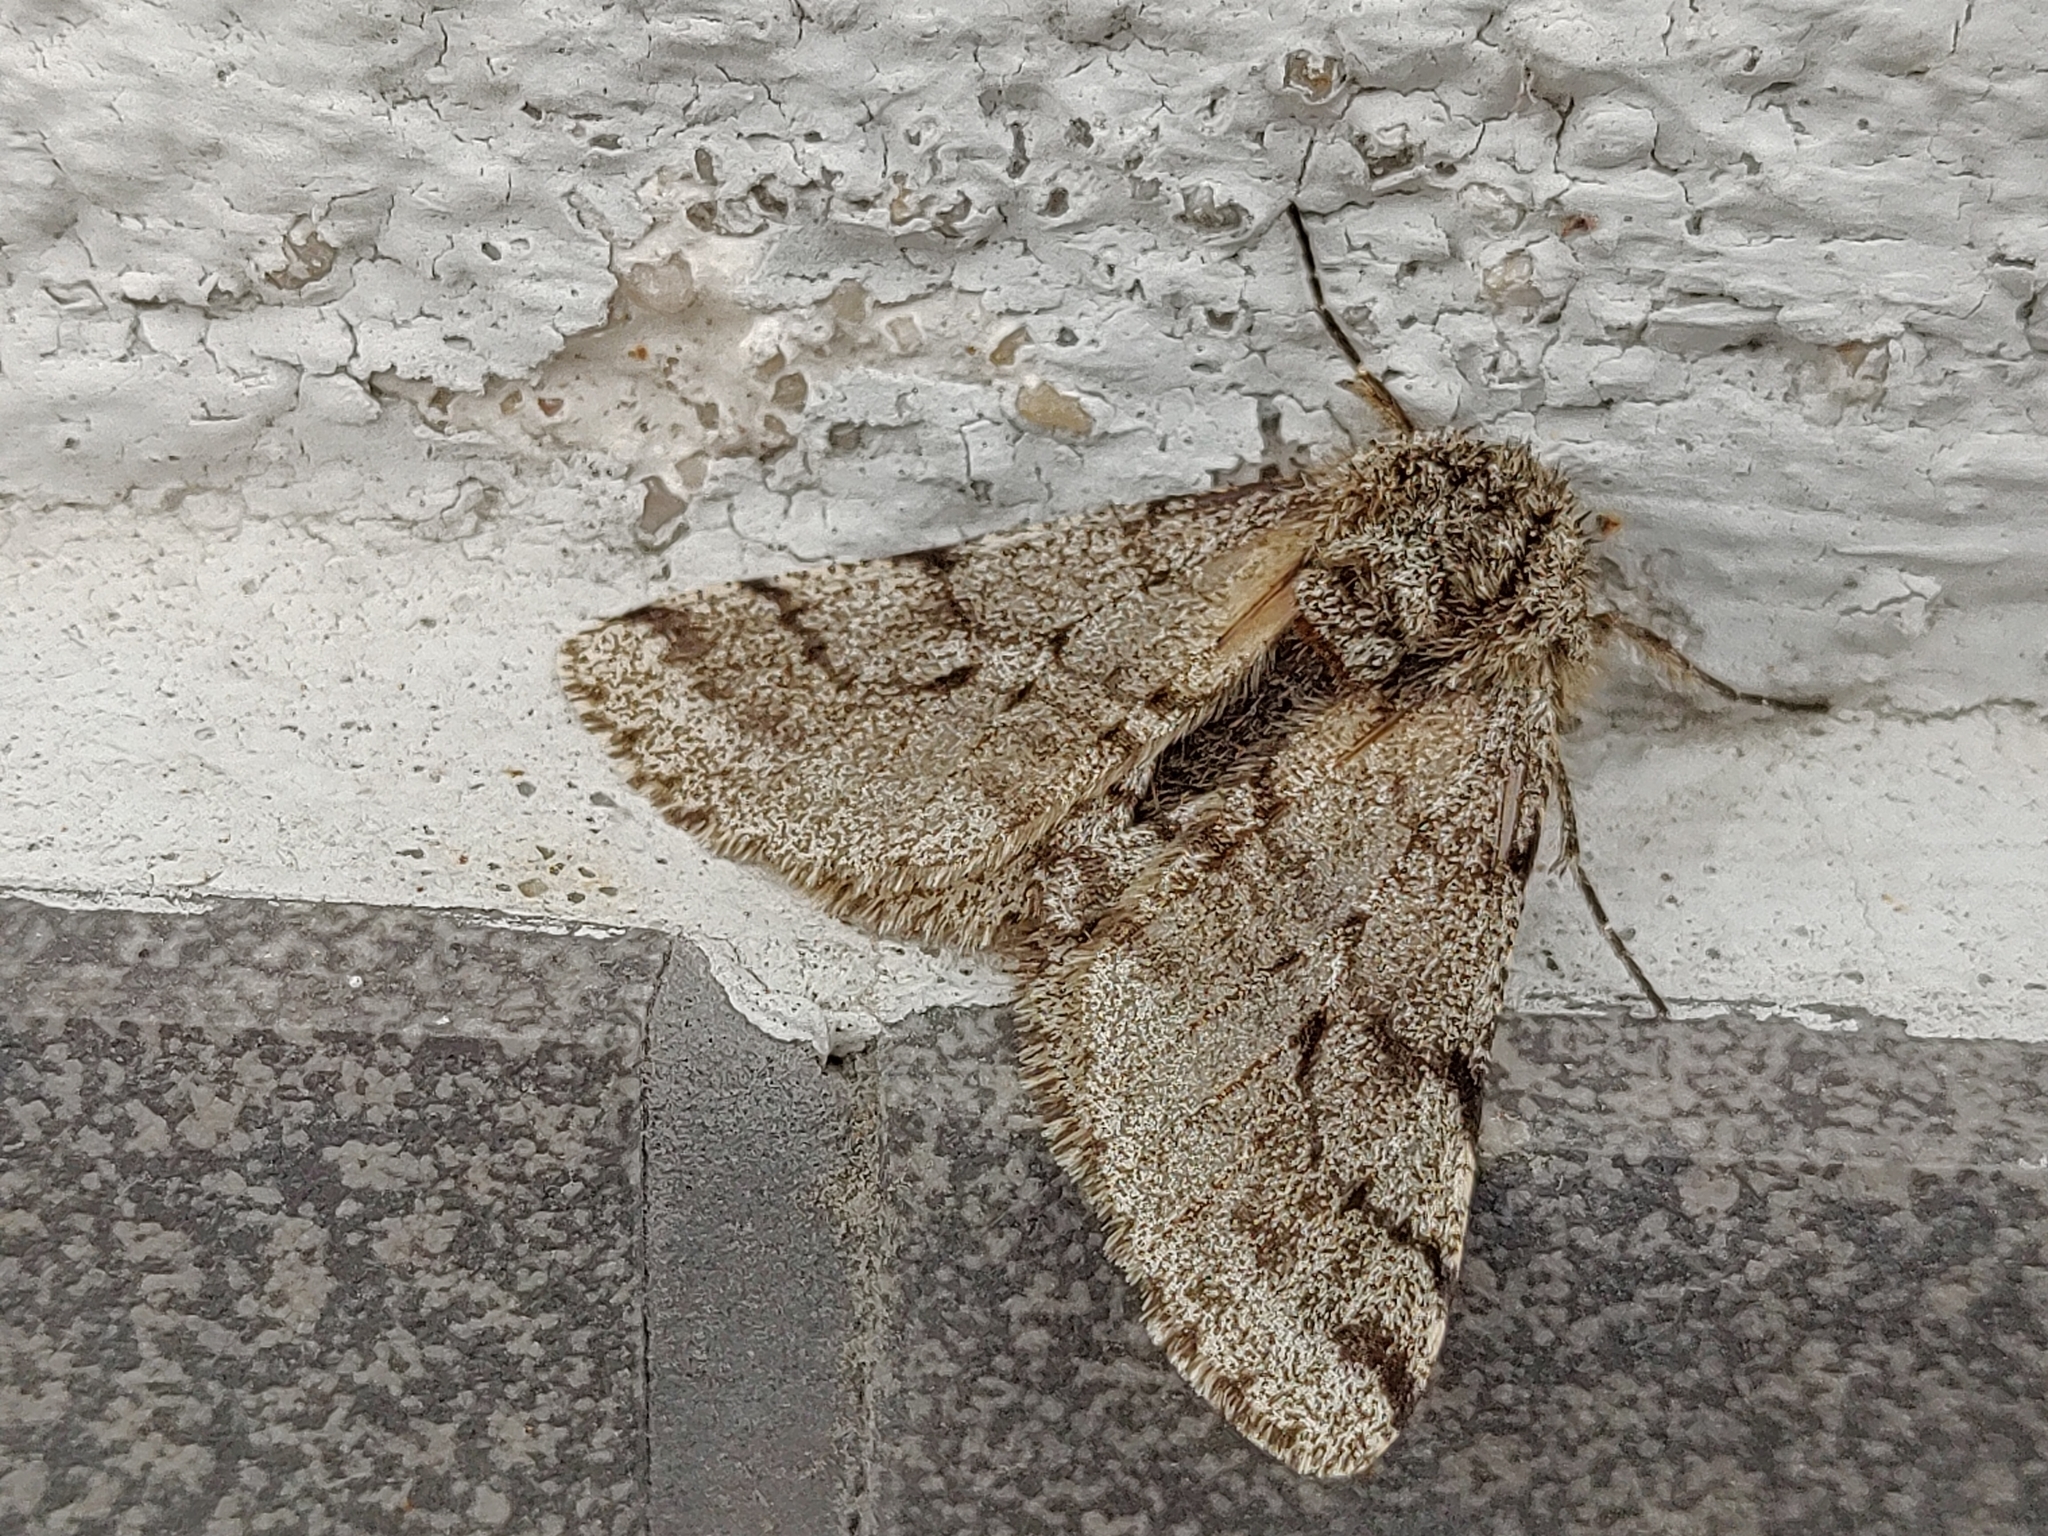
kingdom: Animalia
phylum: Arthropoda
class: Insecta
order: Lepidoptera
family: Geometridae
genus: Lycia
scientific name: Lycia hirtaria
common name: Brindled beauty
